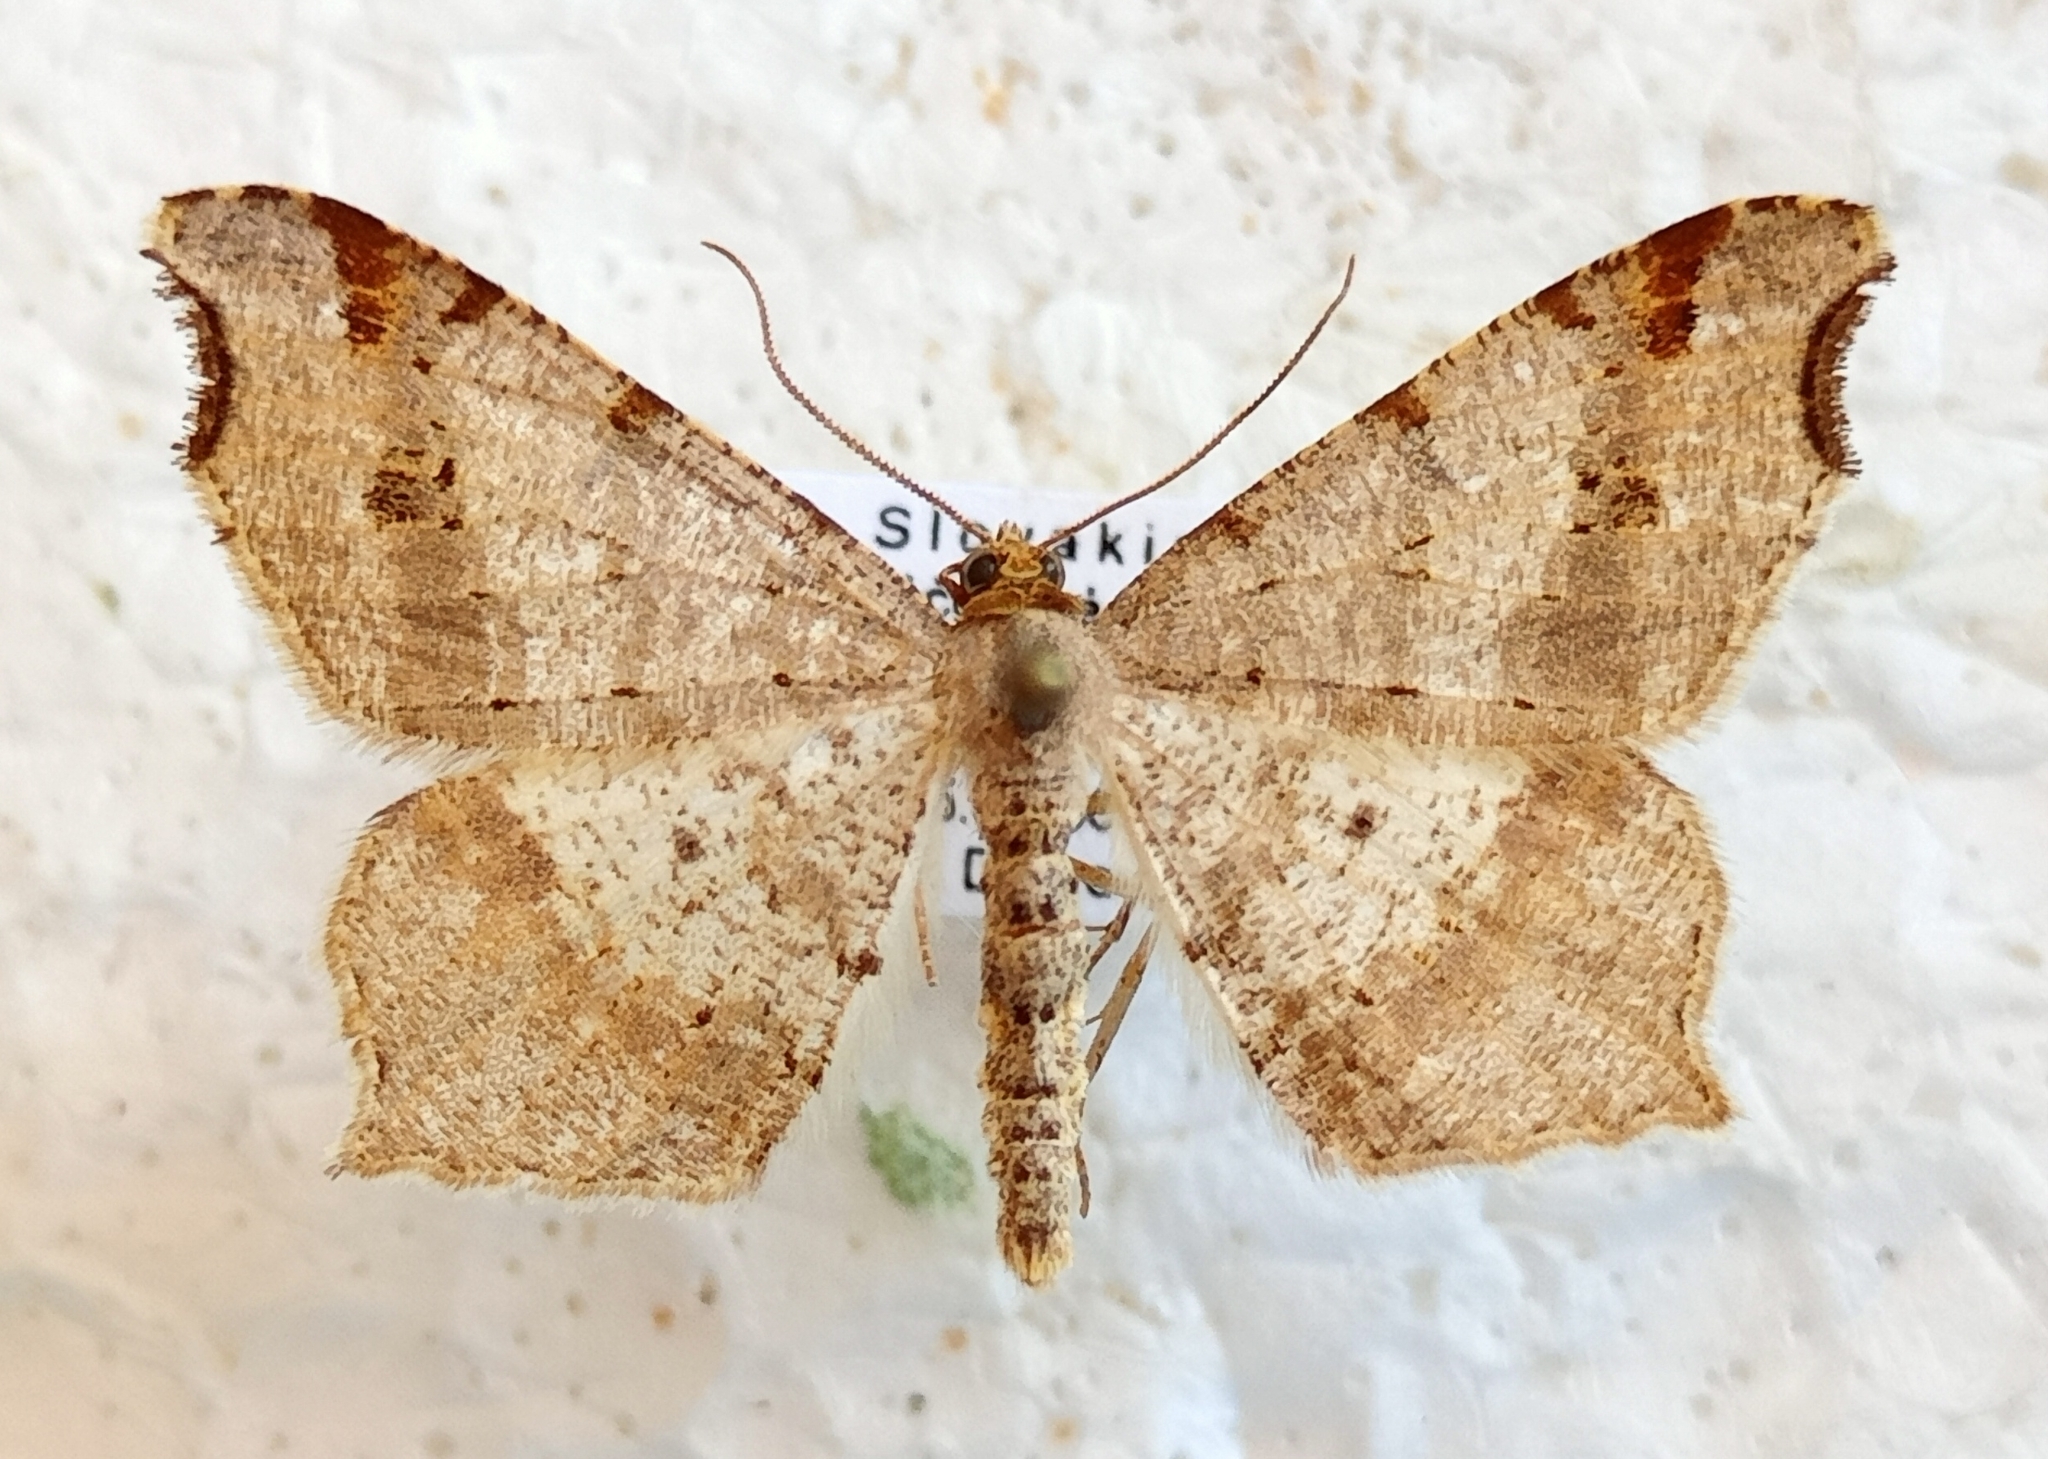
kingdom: Animalia
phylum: Arthropoda
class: Insecta
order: Lepidoptera
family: Geometridae
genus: Macaria
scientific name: Macaria alternata
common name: Sharp-angled peacock
